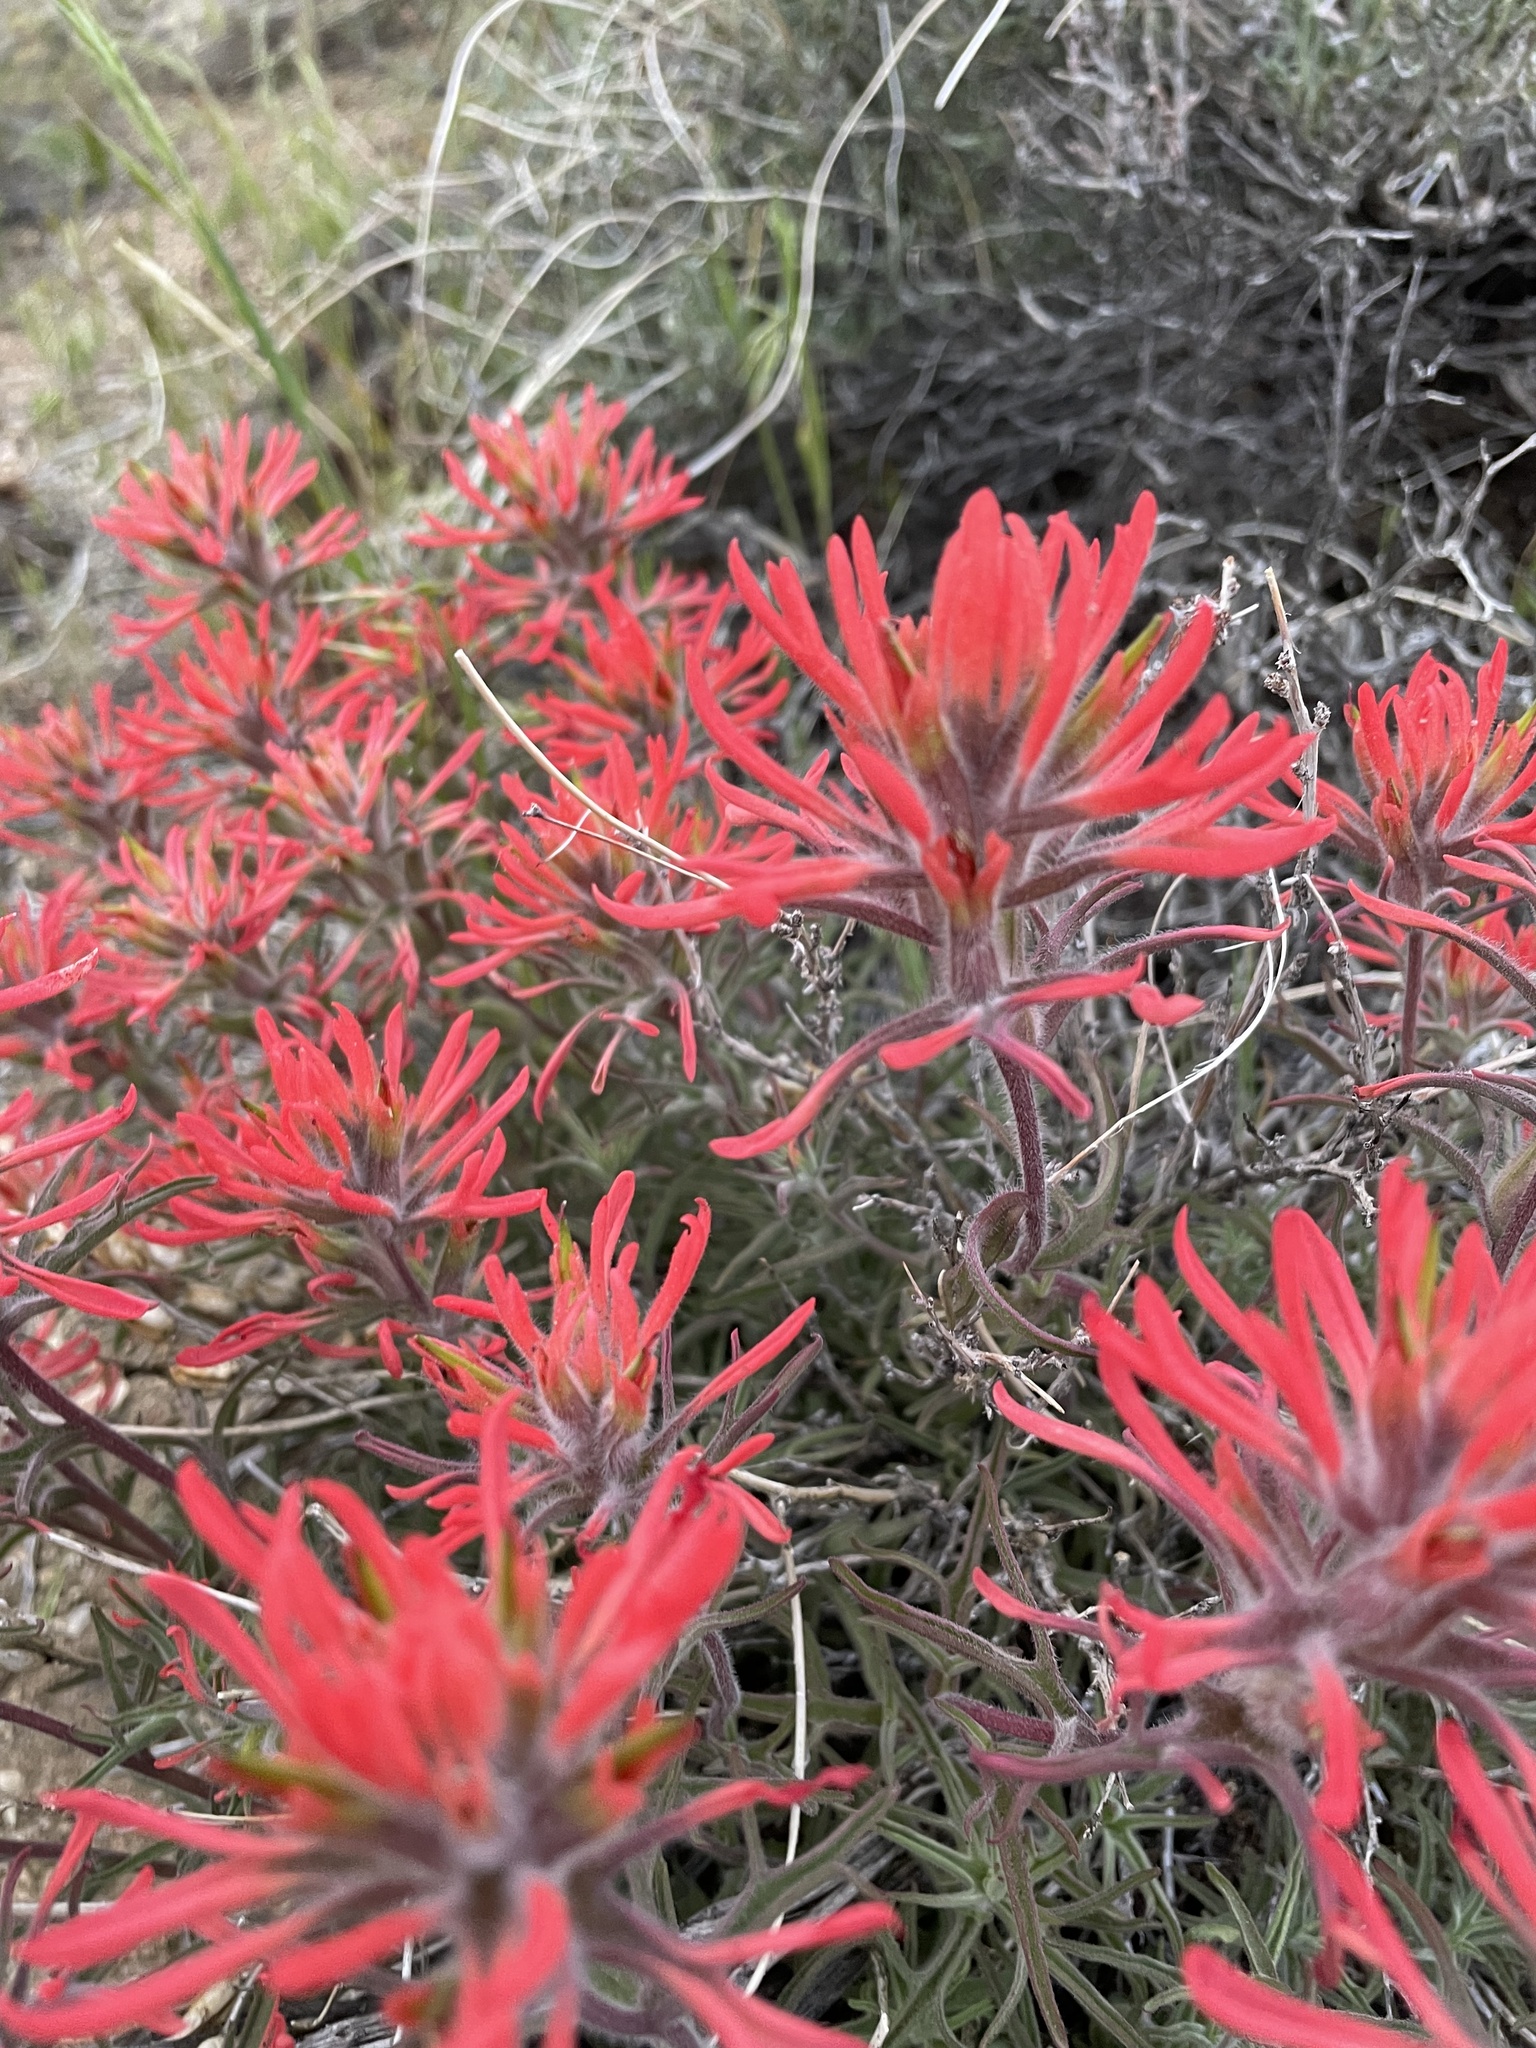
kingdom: Plantae
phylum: Tracheophyta
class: Magnoliopsida
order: Lamiales
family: Orobanchaceae
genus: Castilleja
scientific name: Castilleja chromosa
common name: Desert paintbrush
